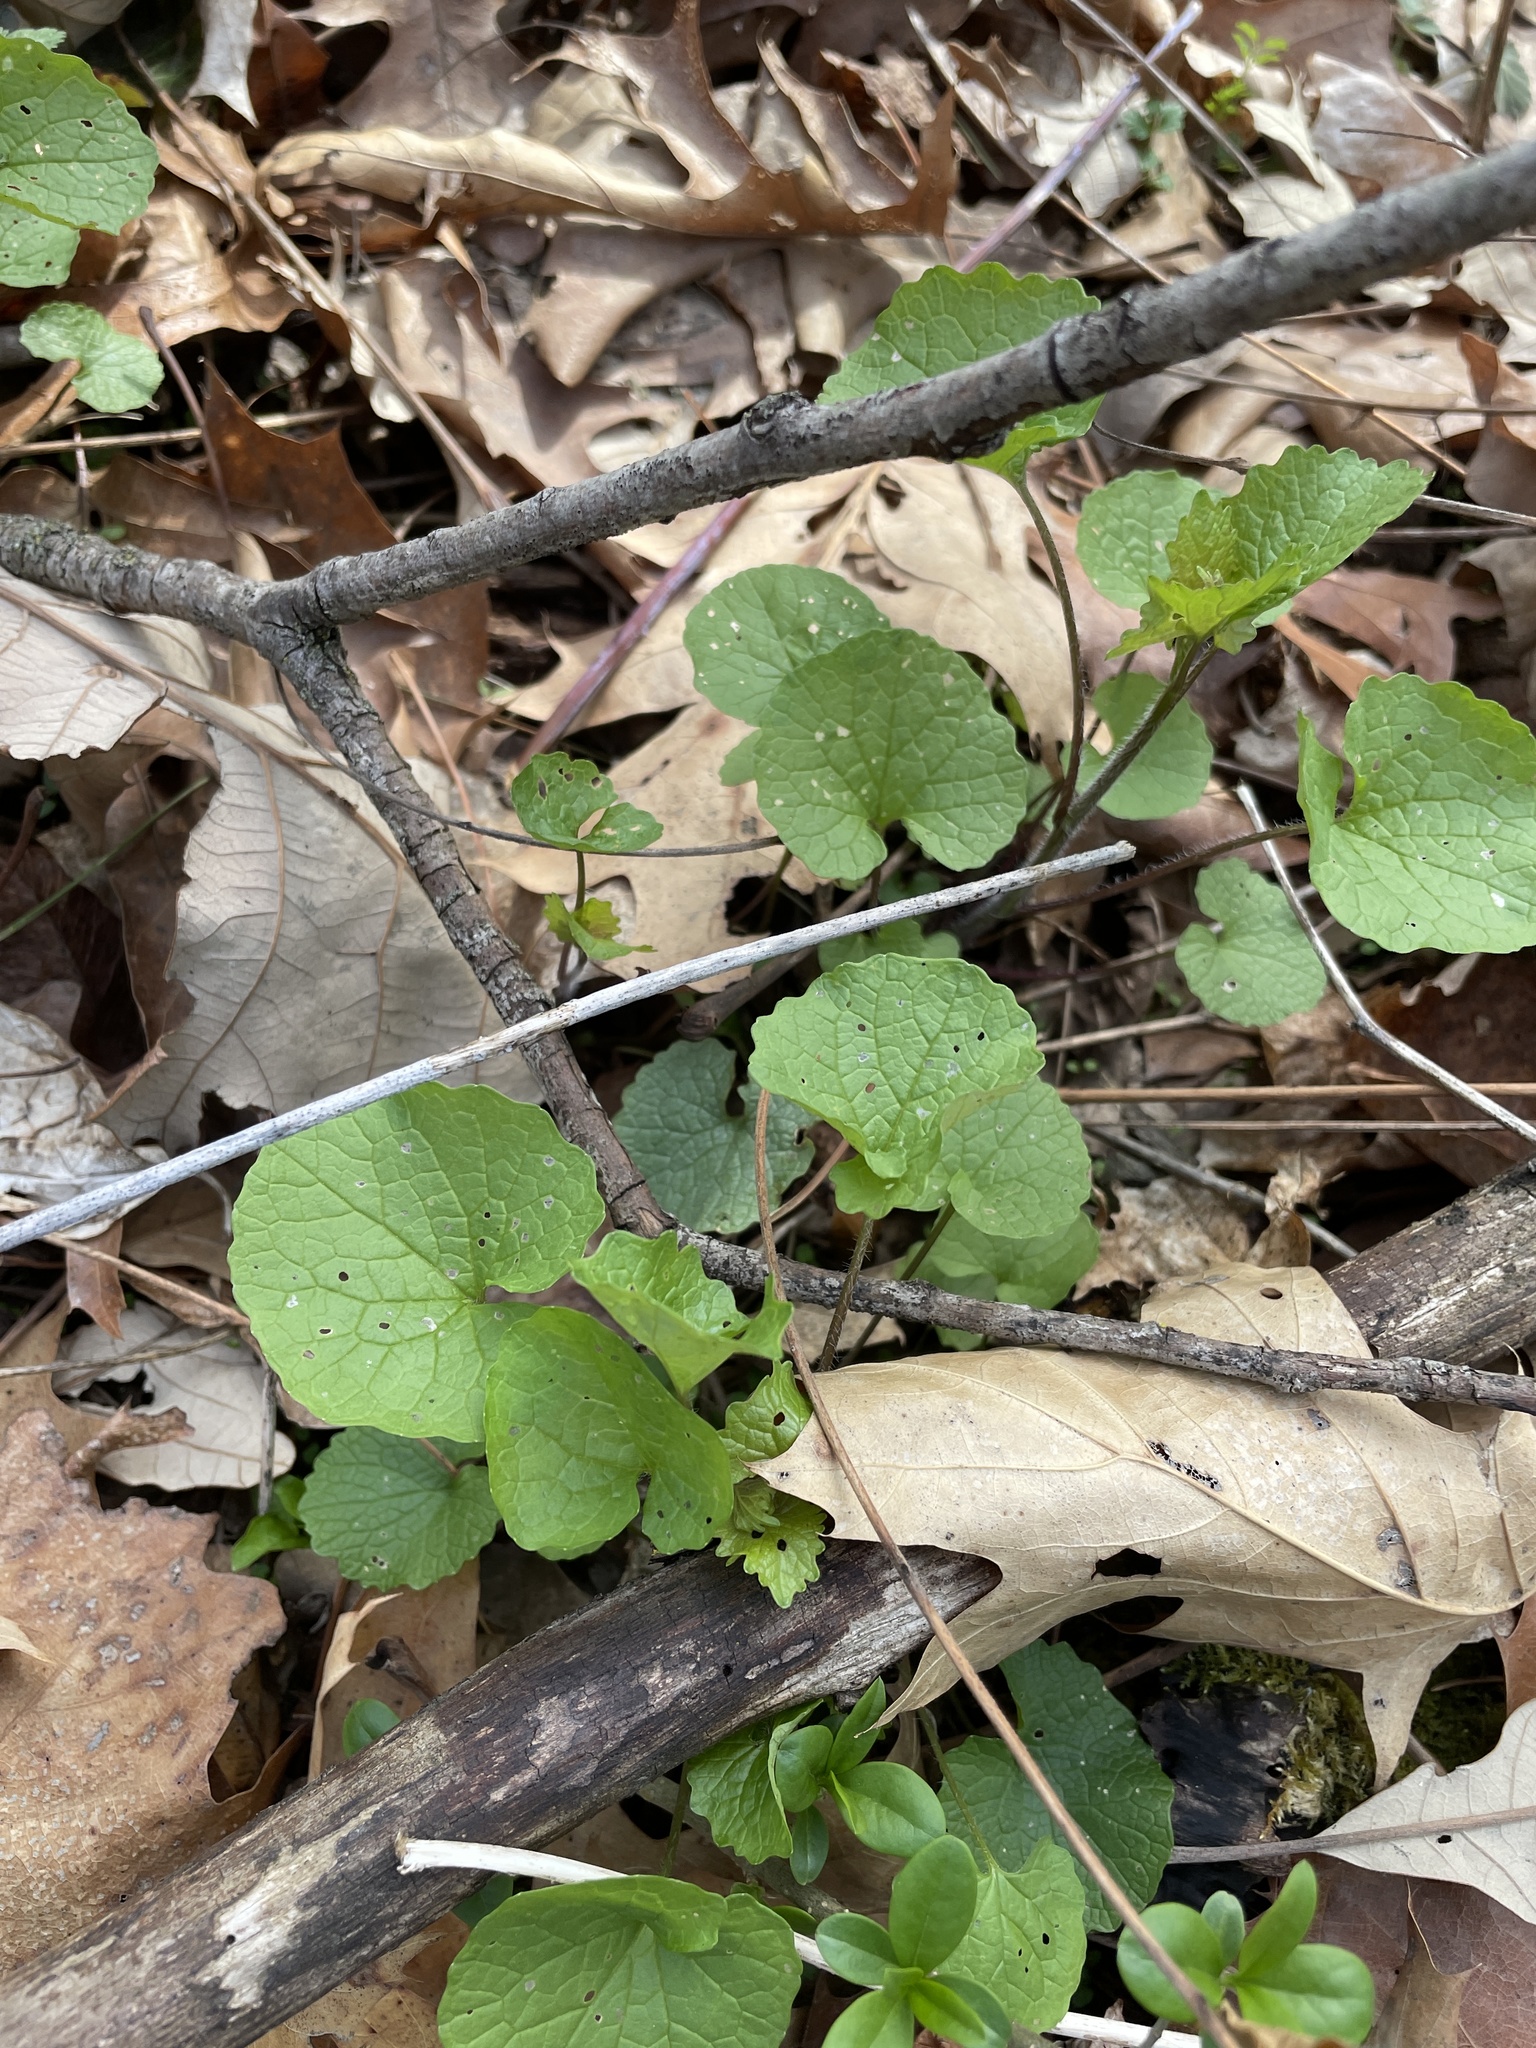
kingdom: Plantae
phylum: Tracheophyta
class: Magnoliopsida
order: Brassicales
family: Brassicaceae
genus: Alliaria
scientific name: Alliaria petiolata
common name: Garlic mustard
